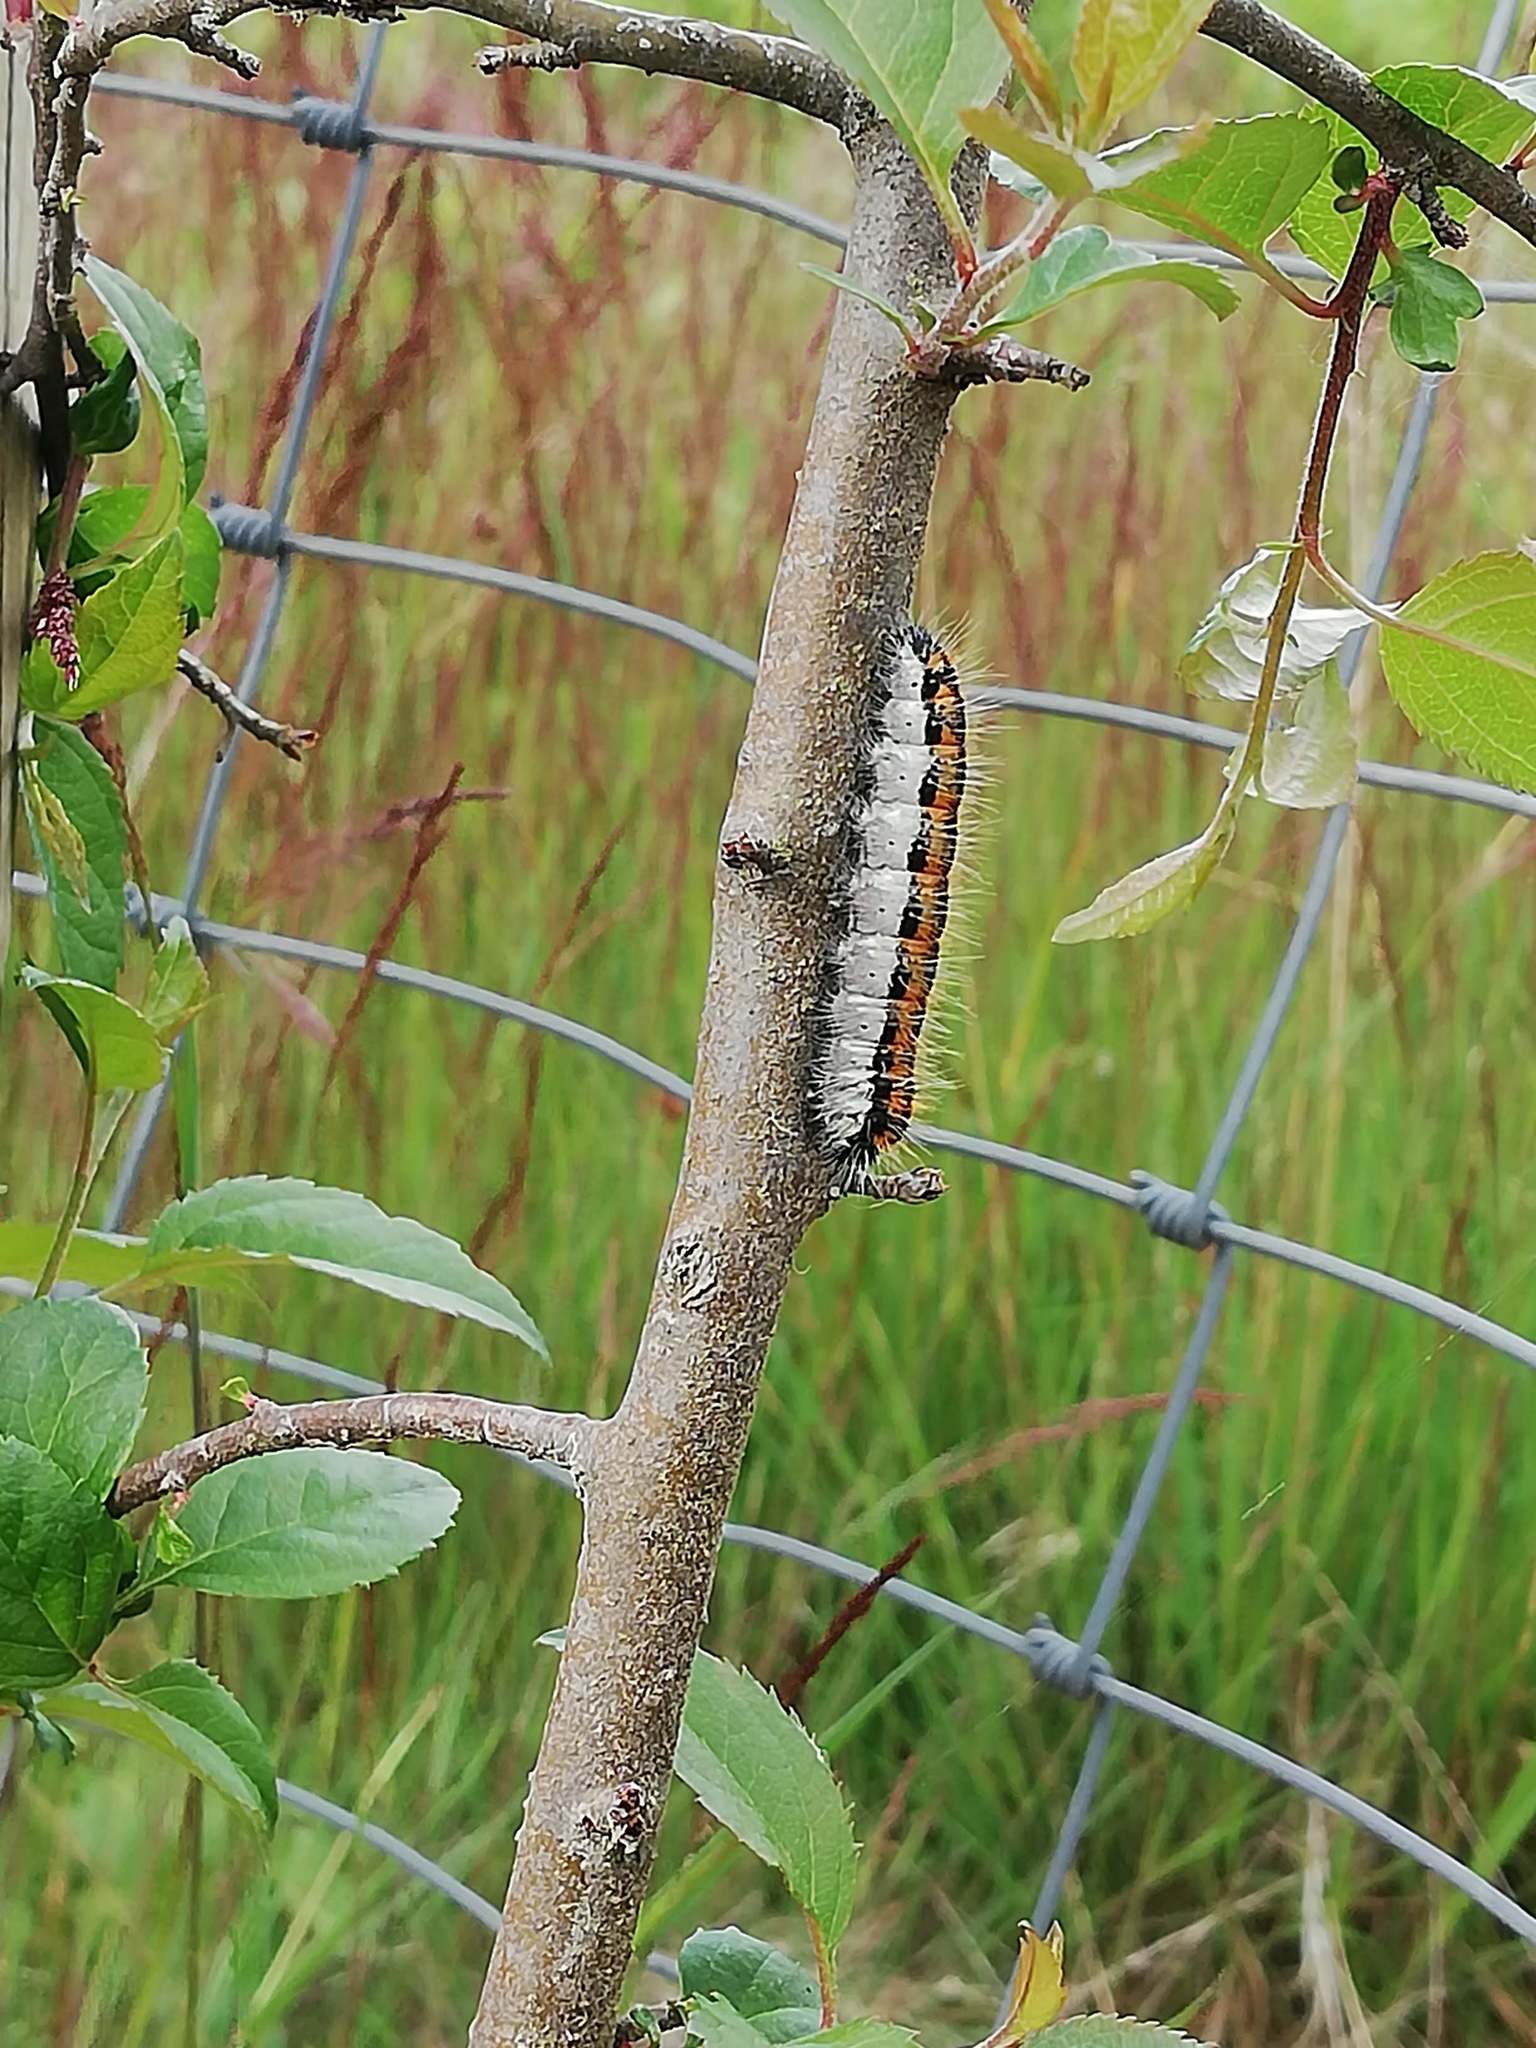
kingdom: Animalia
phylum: Arthropoda
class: Insecta
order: Lepidoptera
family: Pieridae
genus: Aporia
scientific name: Aporia crataegi
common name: Black-veined white
